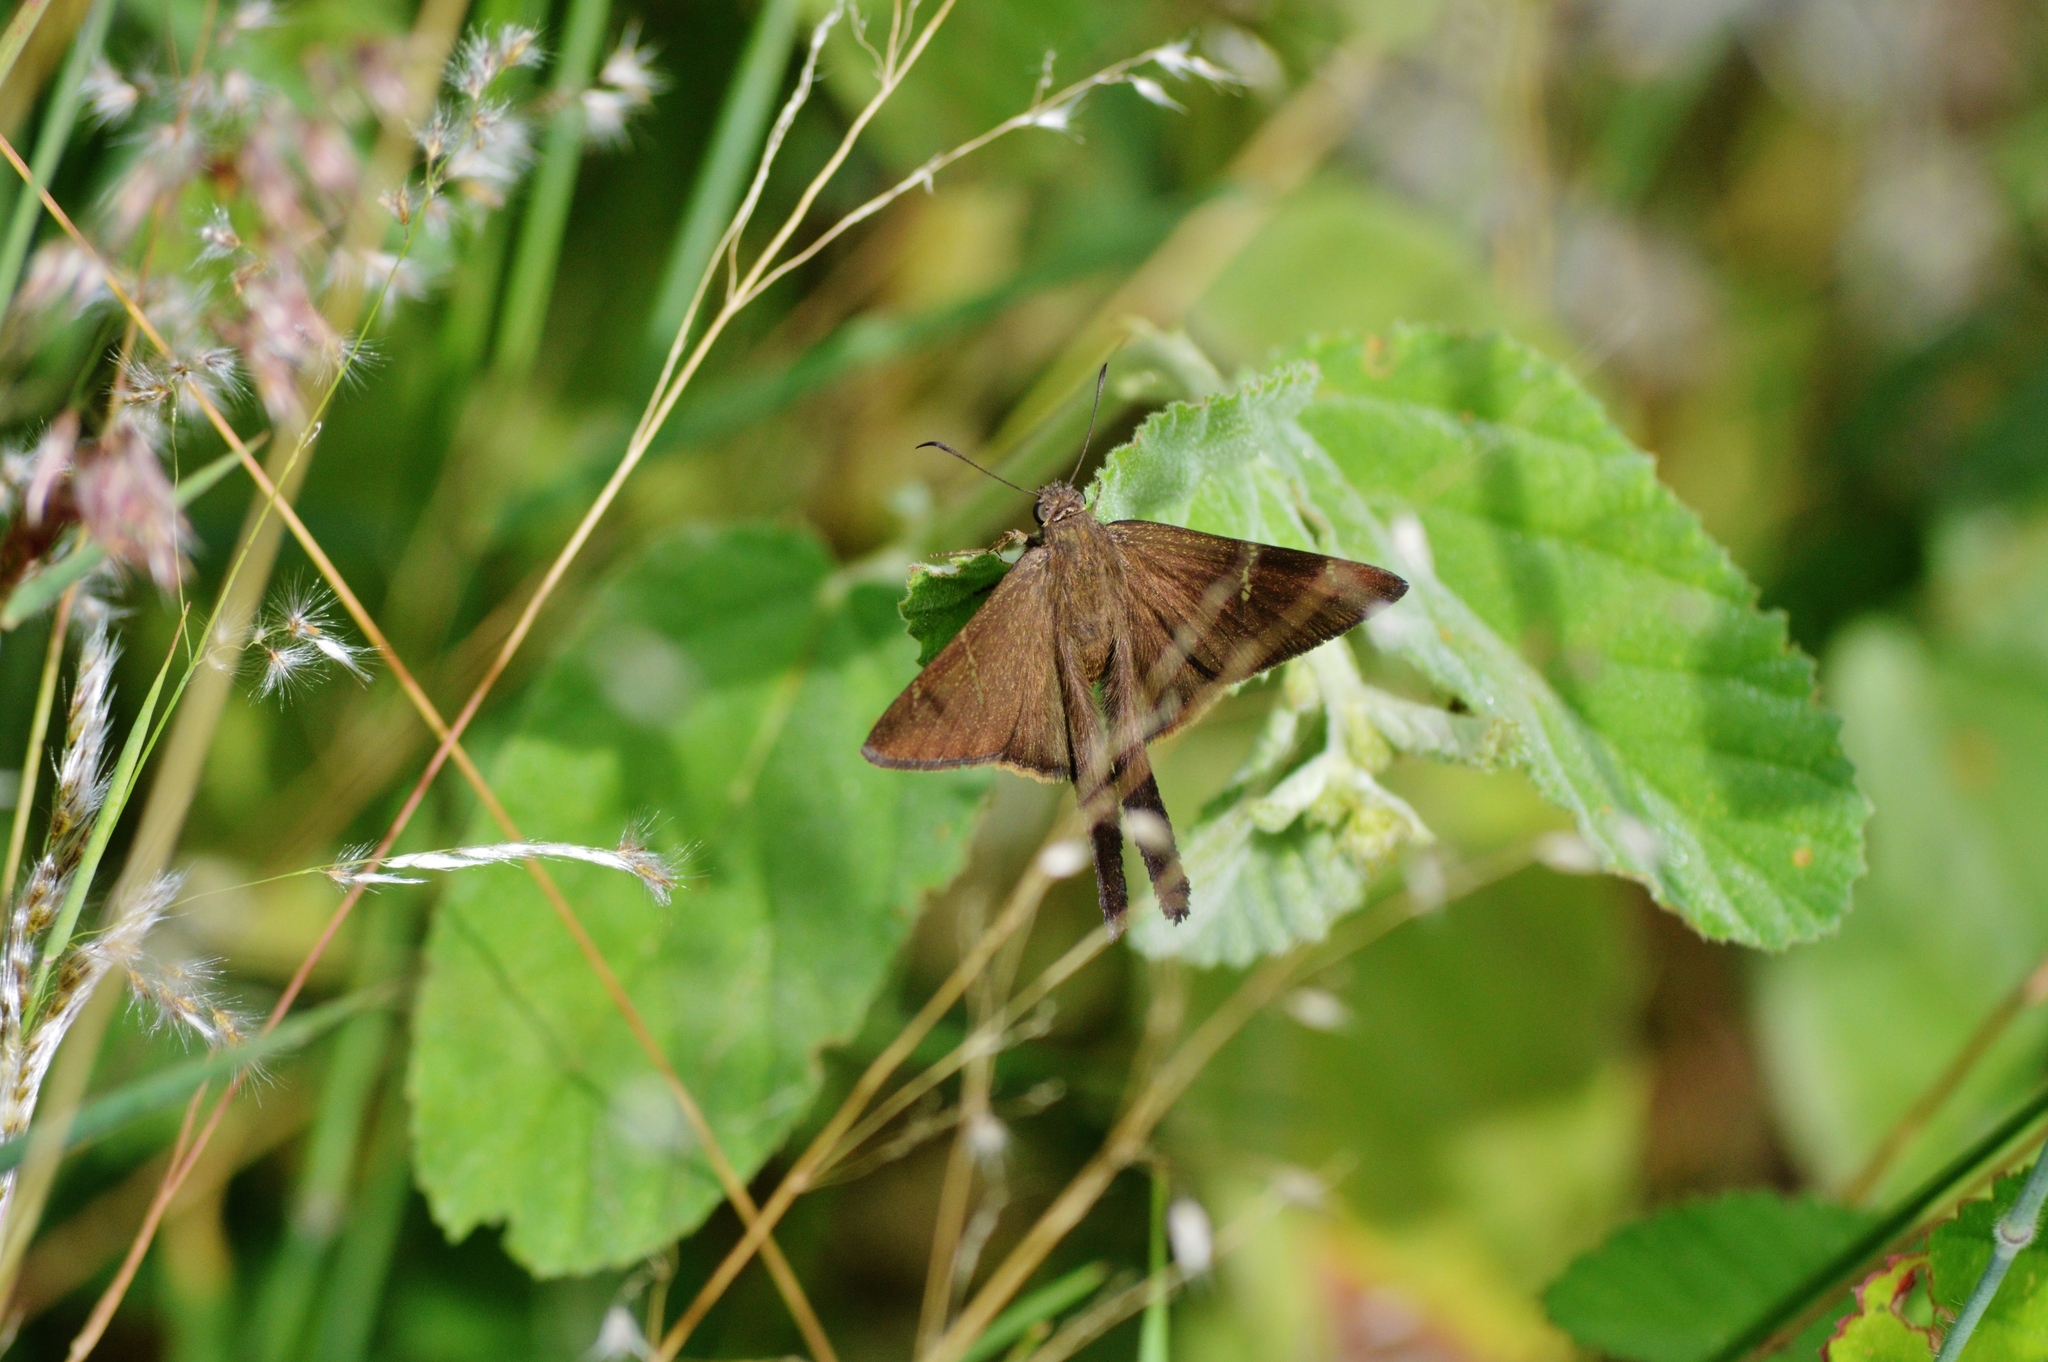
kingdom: Animalia
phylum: Arthropoda
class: Insecta
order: Lepidoptera
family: Hesperiidae
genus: Urbanus
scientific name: Urbanus procne
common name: Brown longtail
